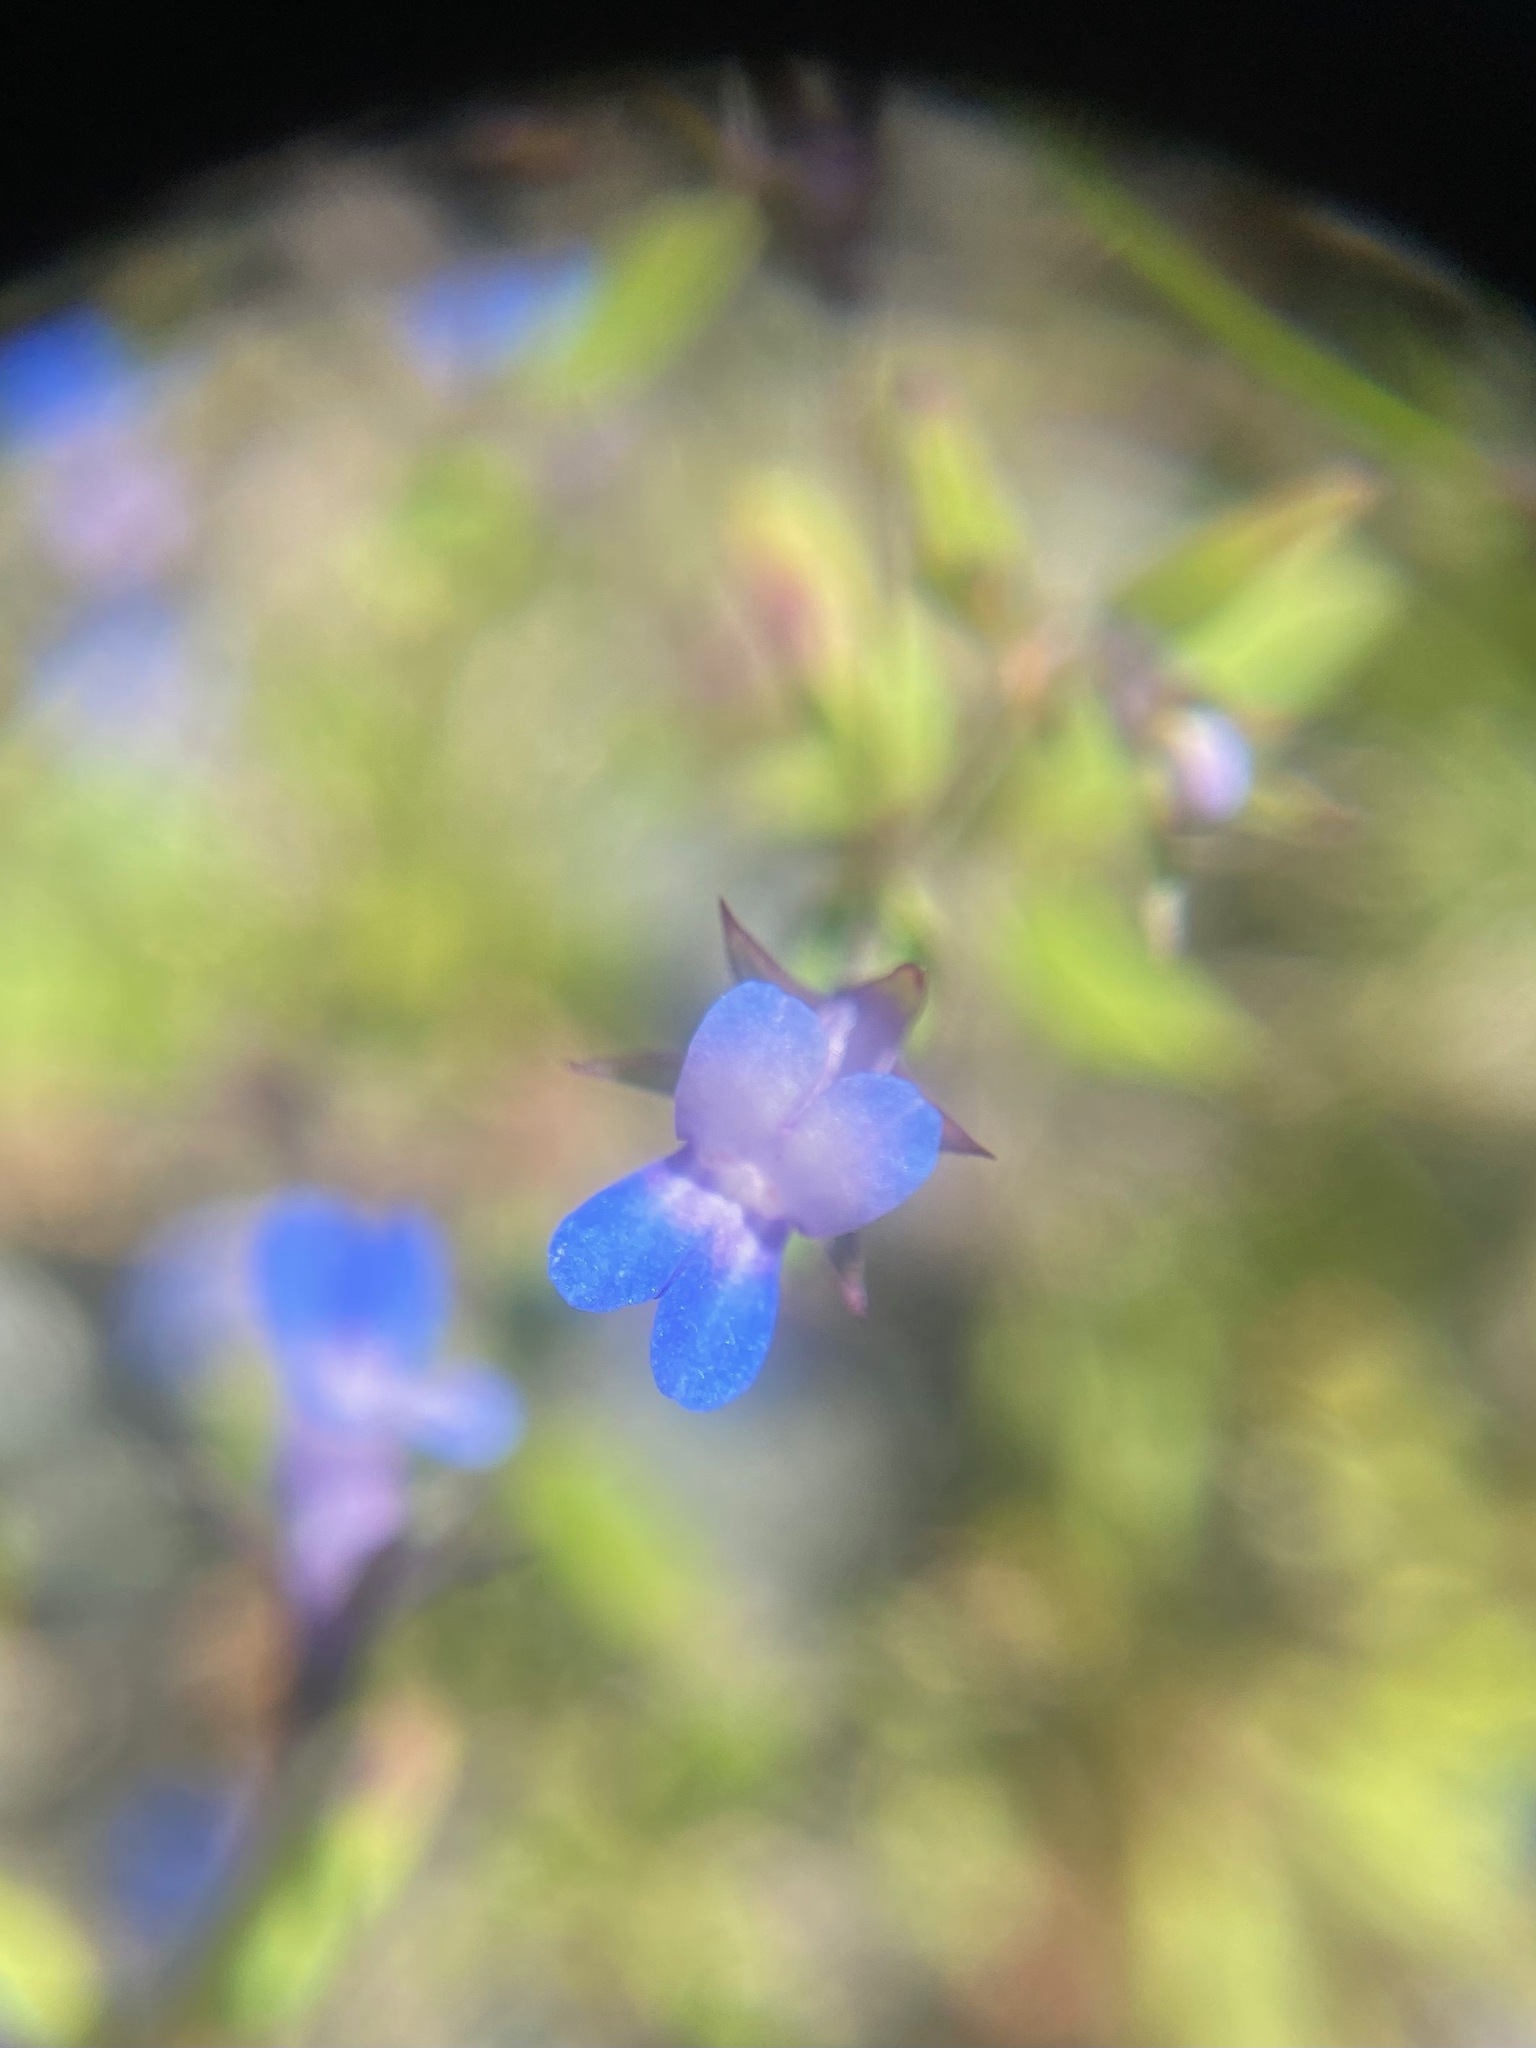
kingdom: Plantae
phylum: Tracheophyta
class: Magnoliopsida
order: Lamiales
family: Plantaginaceae
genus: Collinsia
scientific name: Collinsia parviflora
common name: Blue-lips
